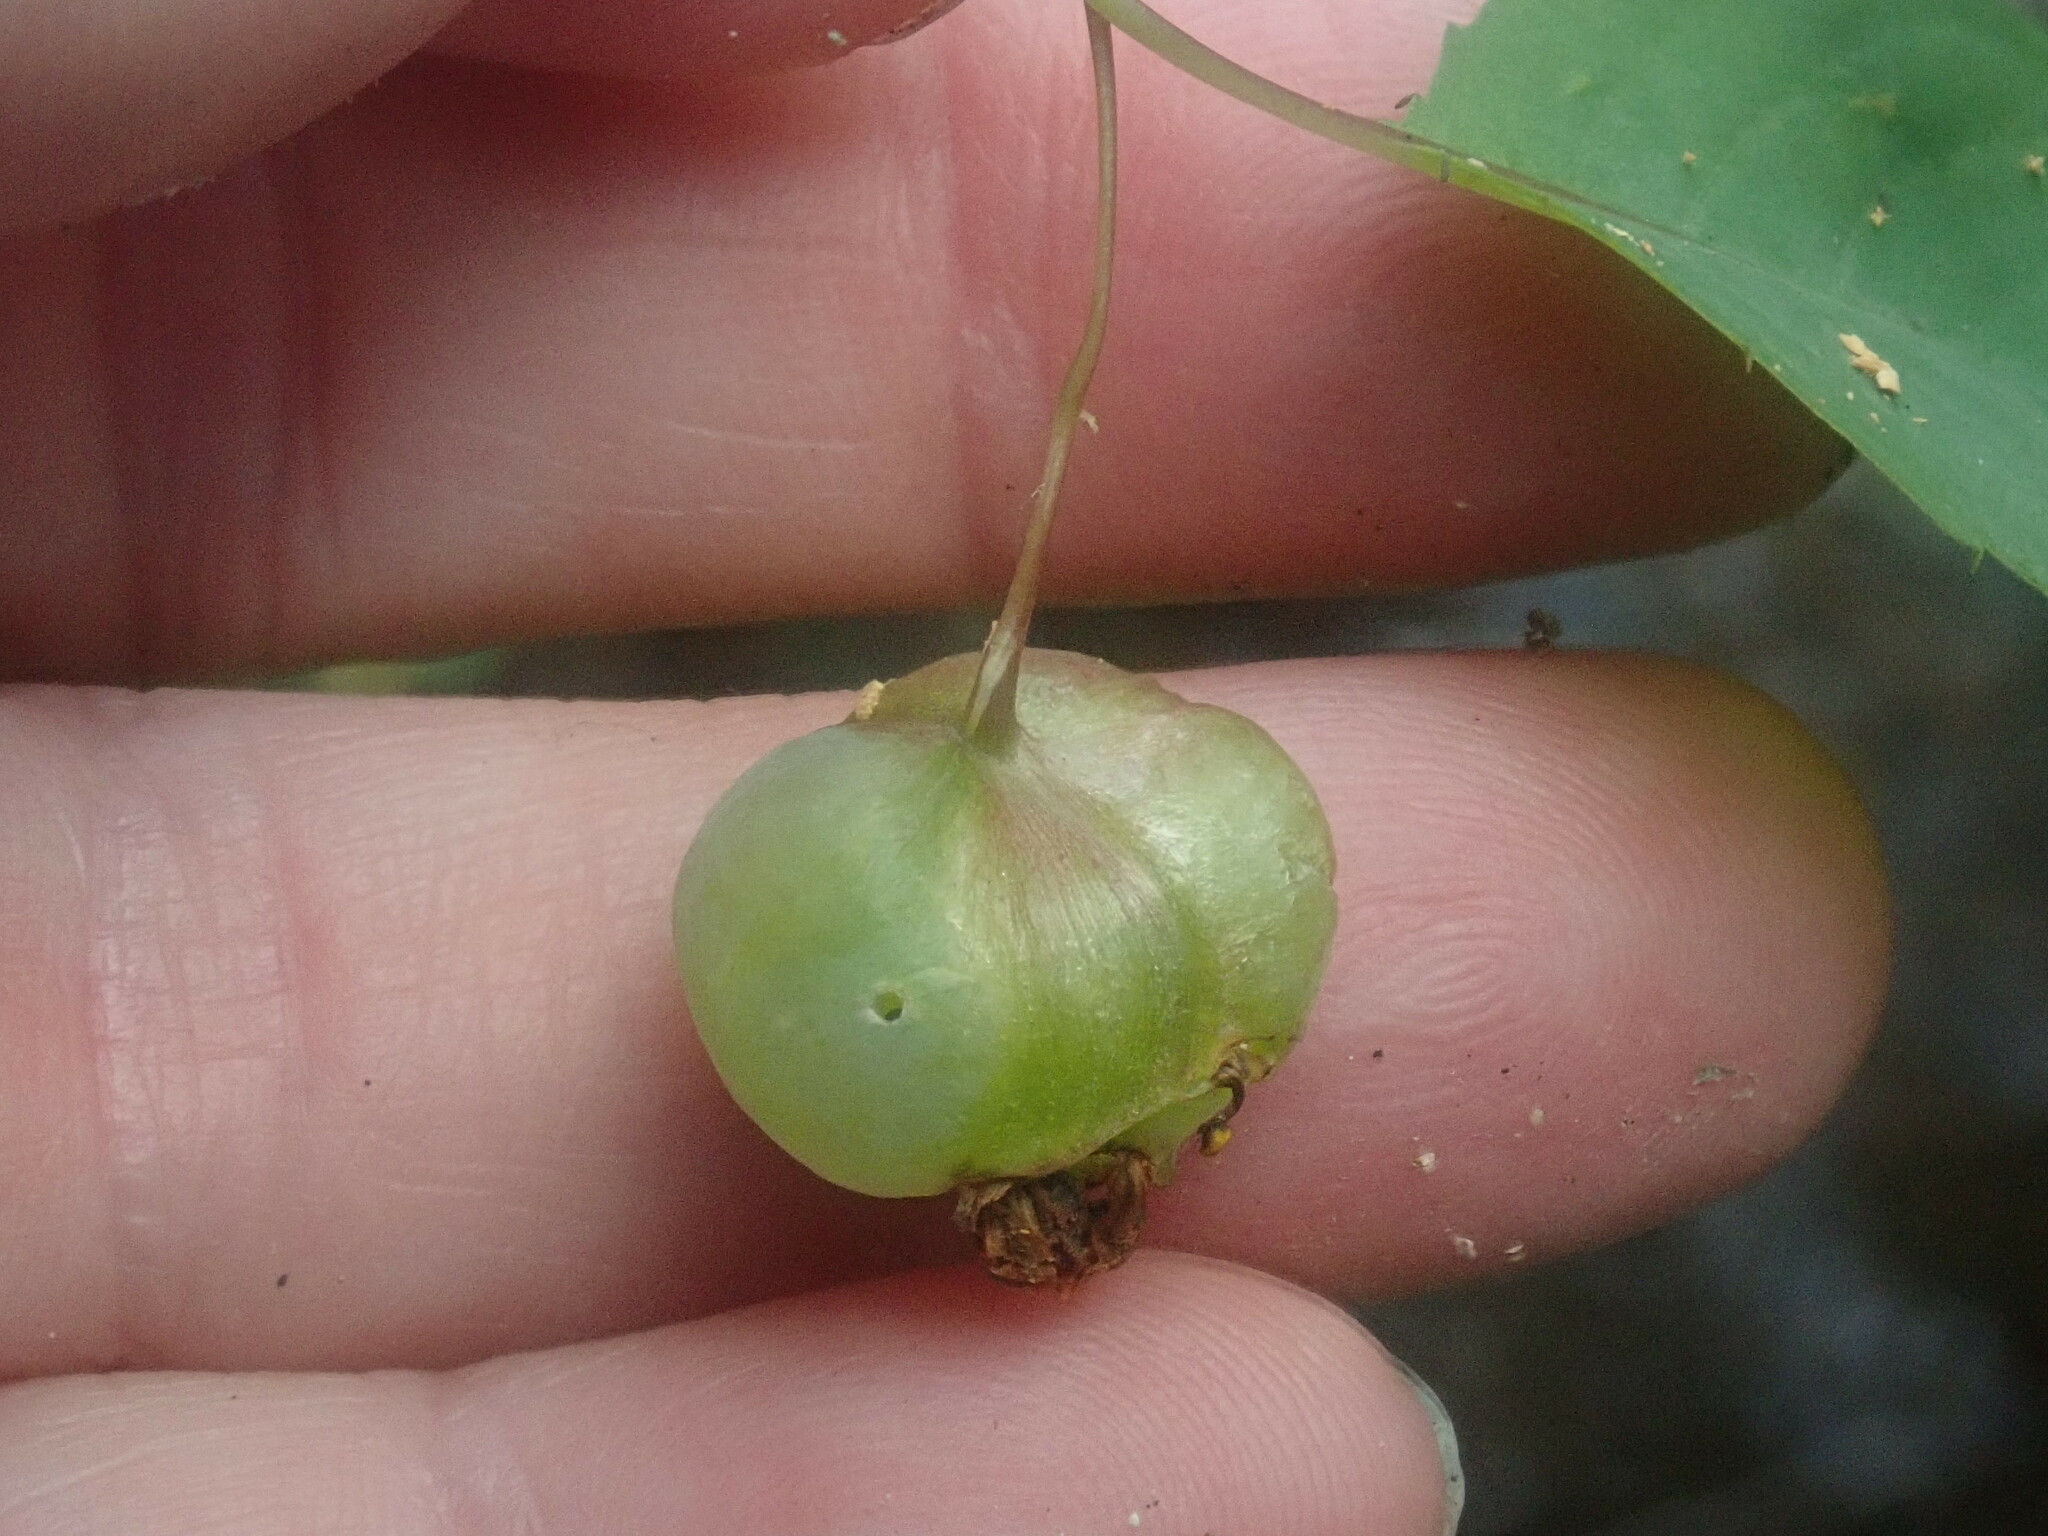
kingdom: Animalia
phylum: Arthropoda
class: Insecta
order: Diptera
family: Cecidomyiidae
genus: Schizomyia
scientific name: Schizomyia impatientis
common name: Jewelweed gall midge
